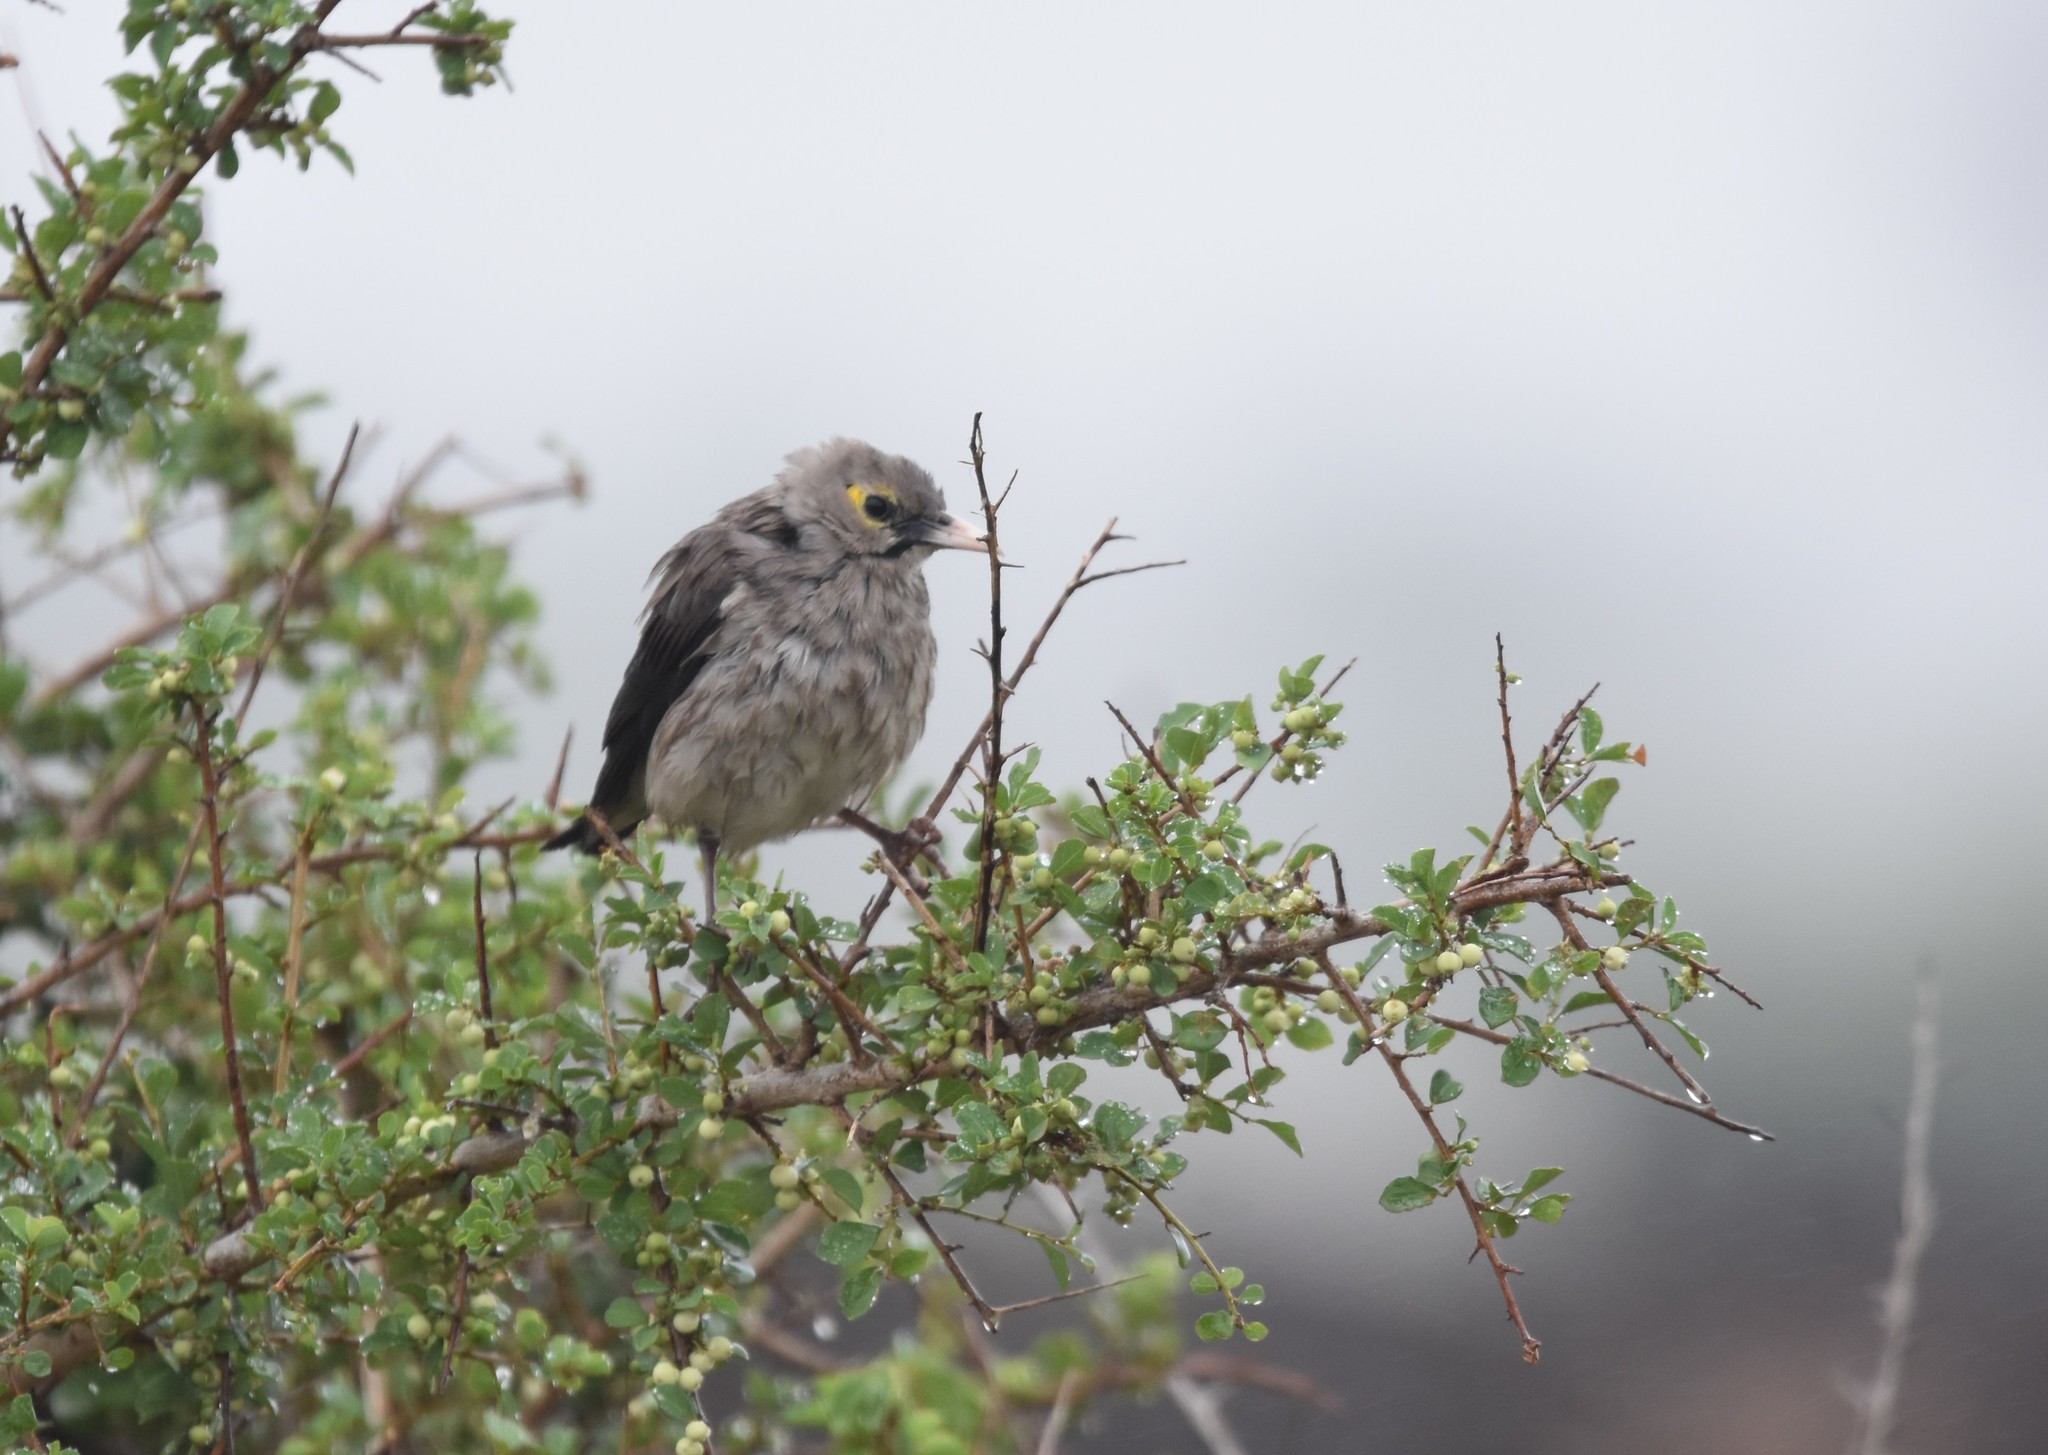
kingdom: Animalia
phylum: Chordata
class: Aves
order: Passeriformes
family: Sturnidae
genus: Creatophora
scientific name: Creatophora cinerea
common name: Wattled starling
